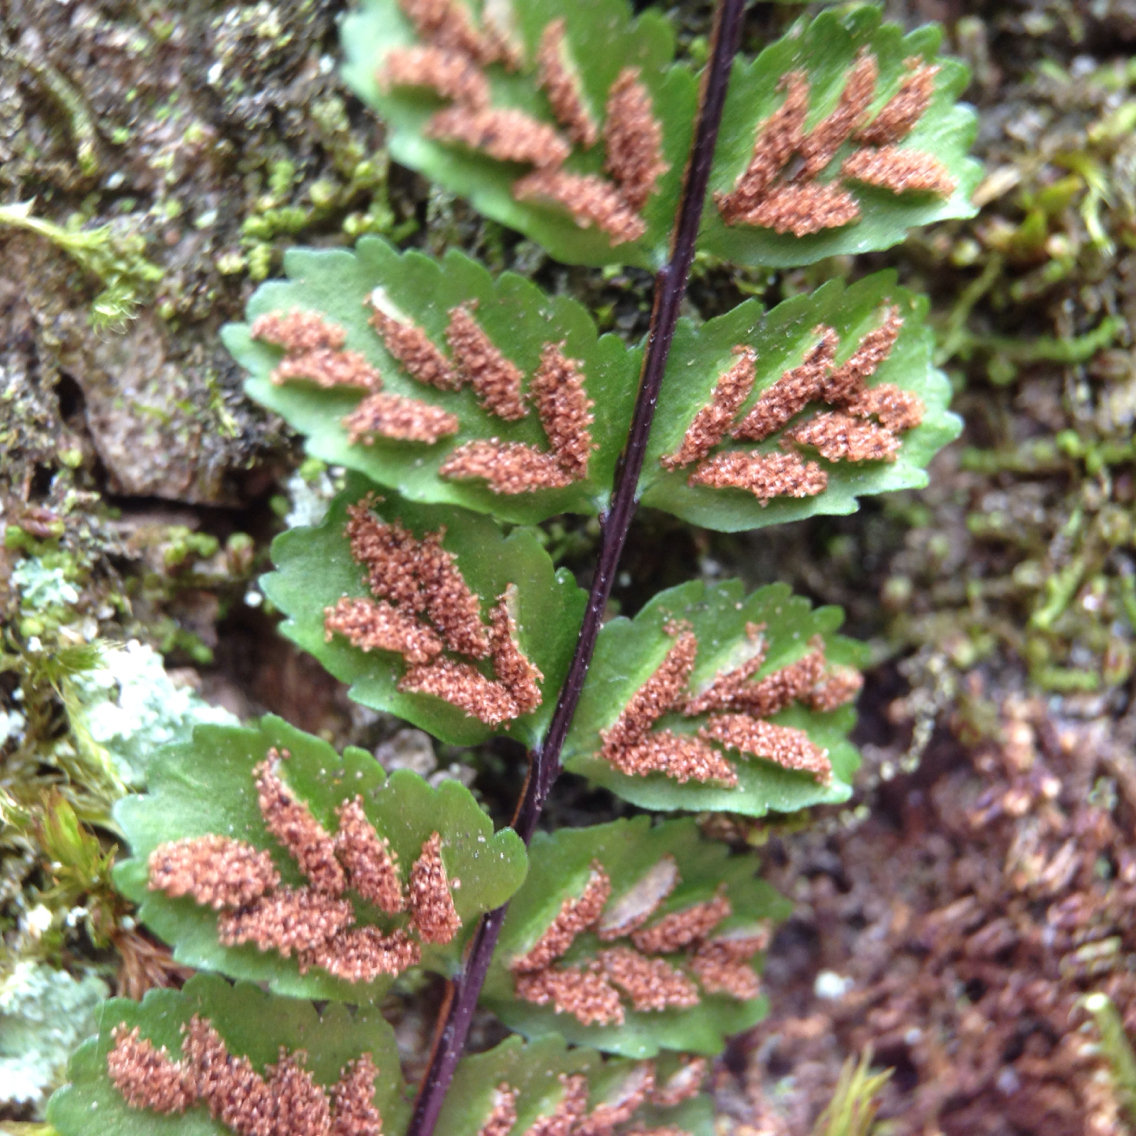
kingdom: Plantae
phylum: Tracheophyta
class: Polypodiopsida
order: Polypodiales
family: Aspleniaceae
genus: Asplenium
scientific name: Asplenium trichomanes
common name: Maidenhair spleenwort
